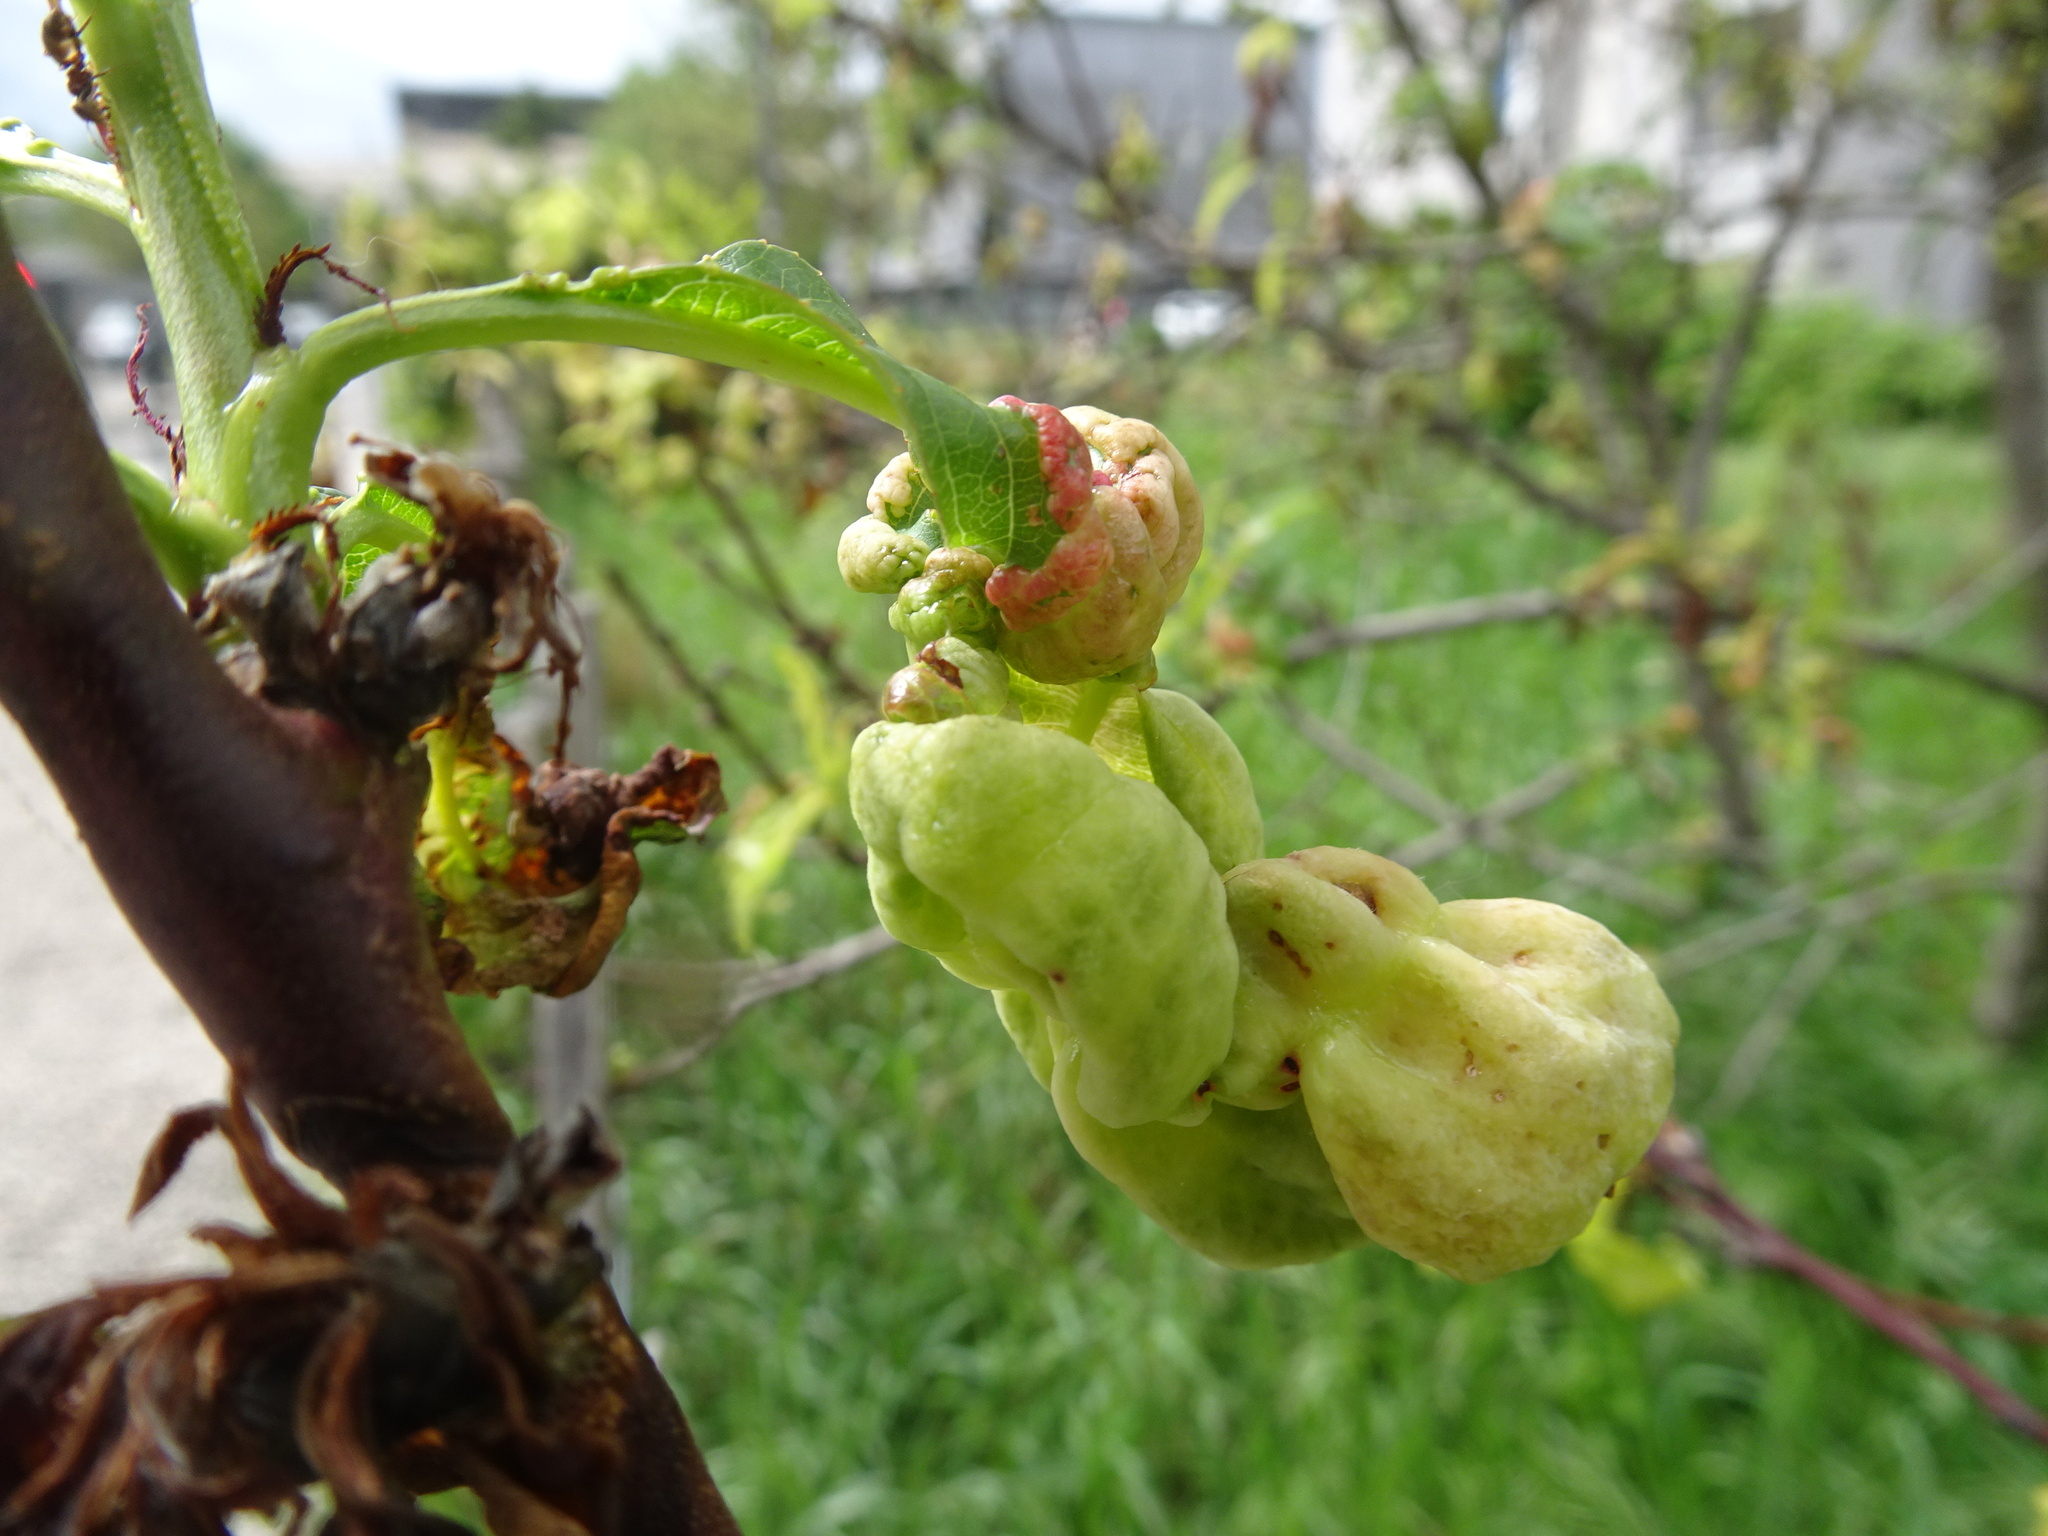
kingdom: Fungi
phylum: Ascomycota
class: Taphrinomycetes
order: Taphrinales
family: Taphrinaceae
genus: Taphrina
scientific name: Taphrina deformans
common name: Peach leaf curl
